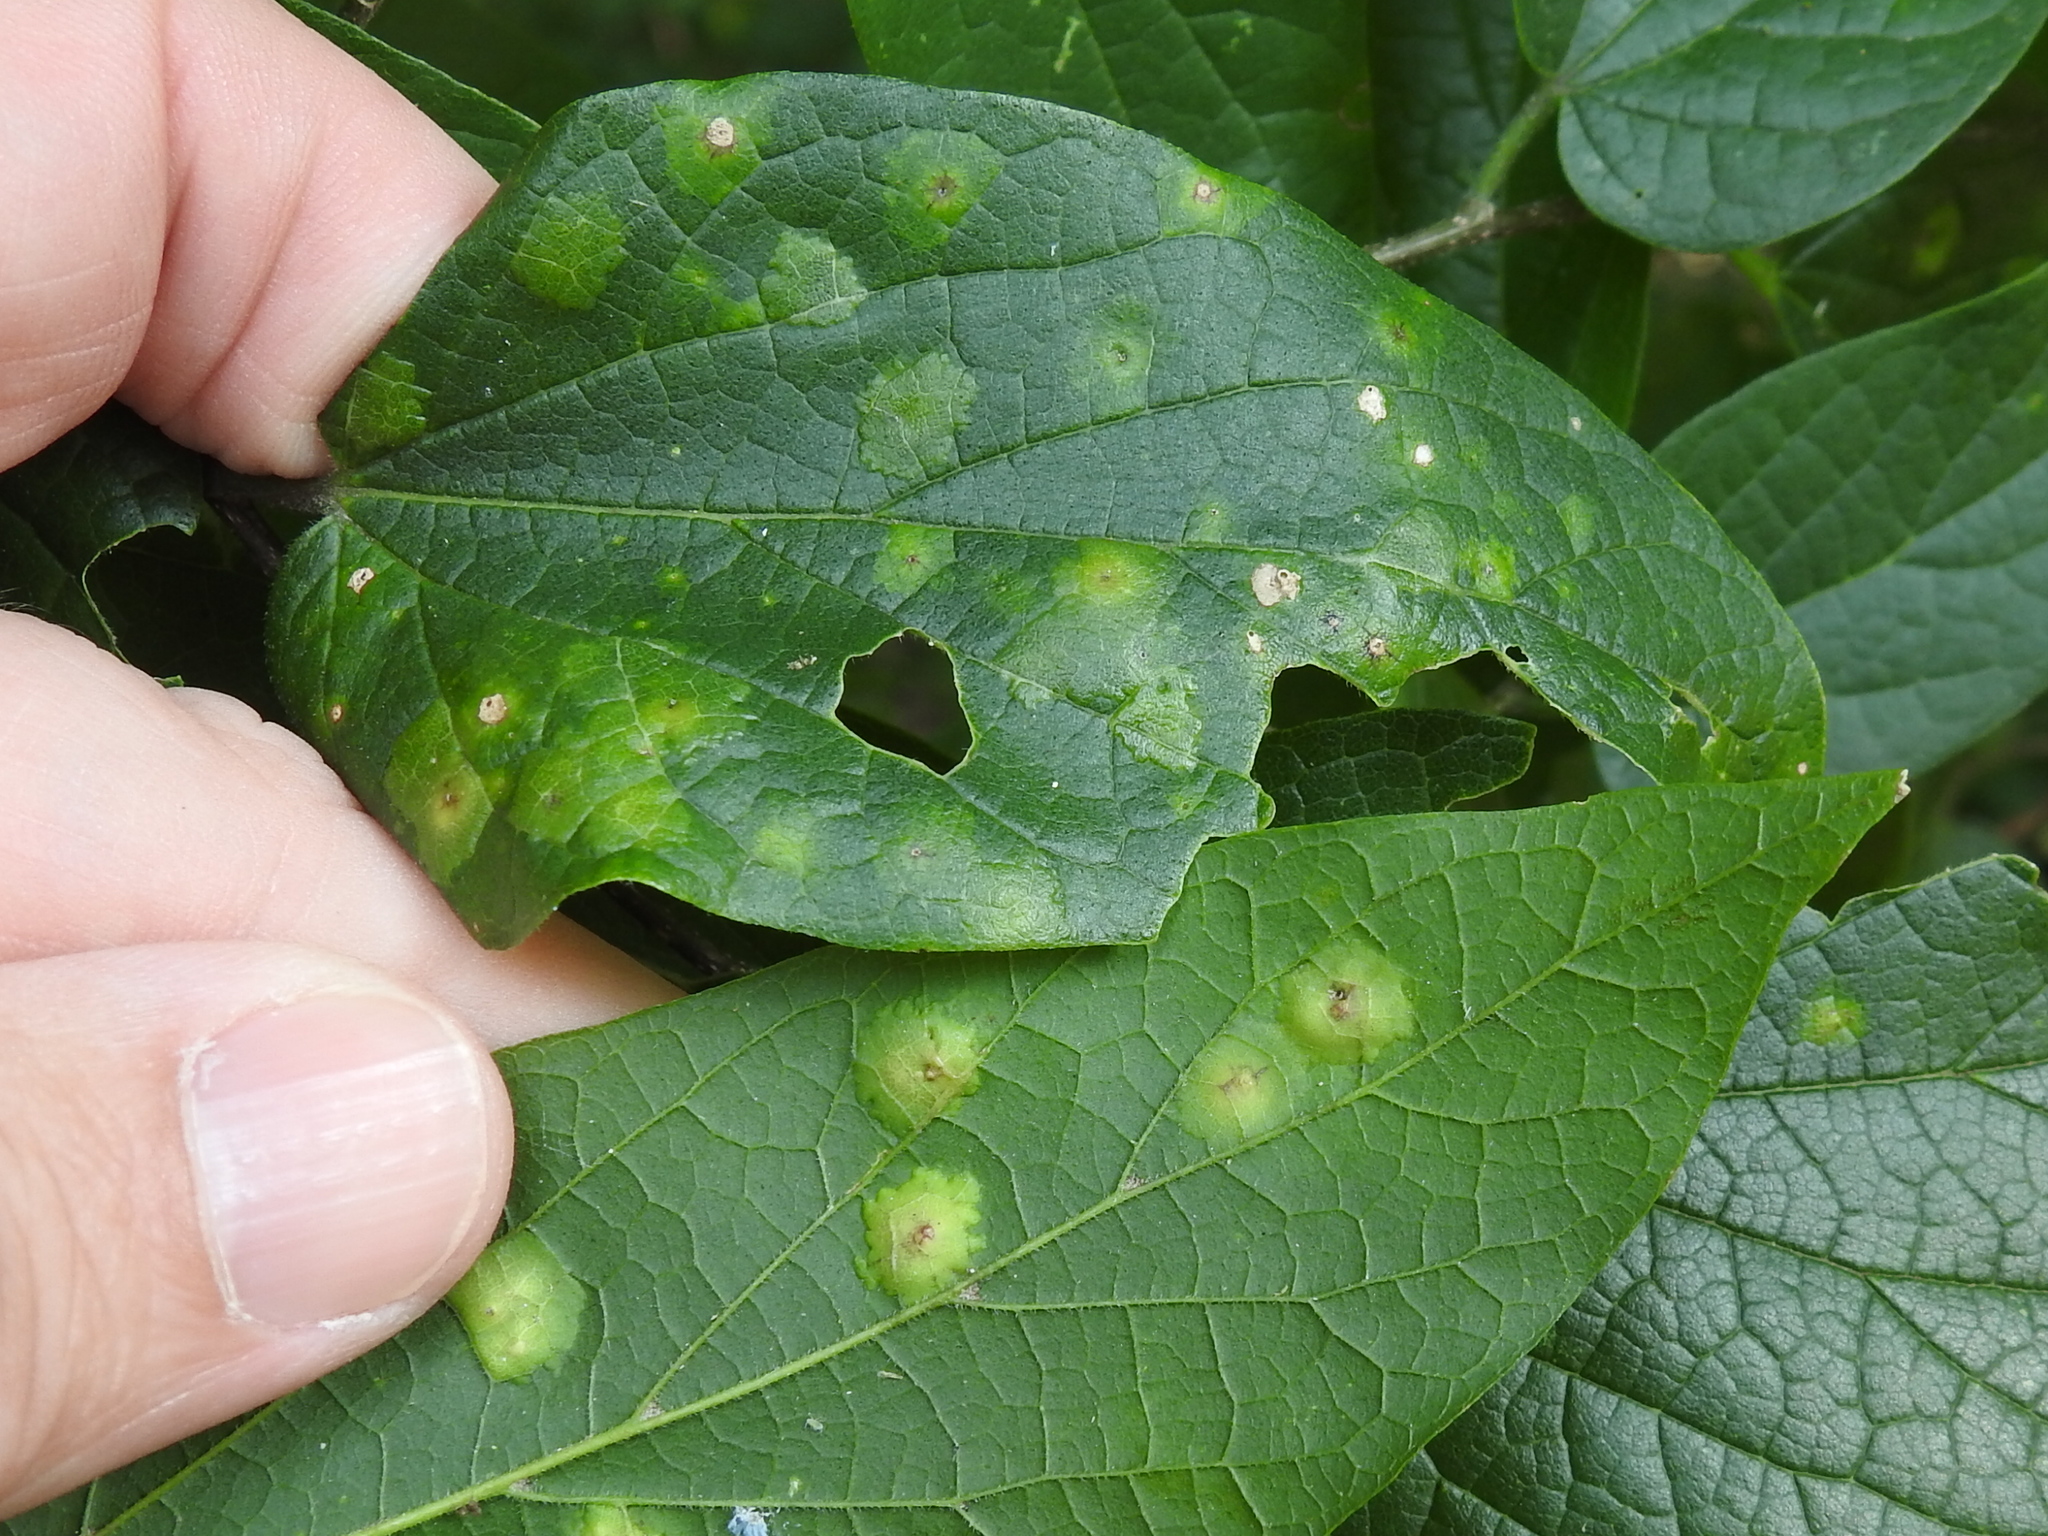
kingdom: Animalia
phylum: Arthropoda
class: Insecta
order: Hemiptera
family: Aphalaridae
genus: Pachypsylla
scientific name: Pachypsylla celtidisvesicula
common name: Hackberry blister gall psyllid
